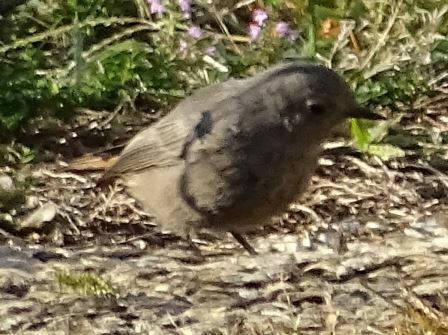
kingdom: Animalia
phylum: Chordata
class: Aves
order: Passeriformes
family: Muscicapidae
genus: Phoenicurus
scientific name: Phoenicurus ochruros
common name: Black redstart
